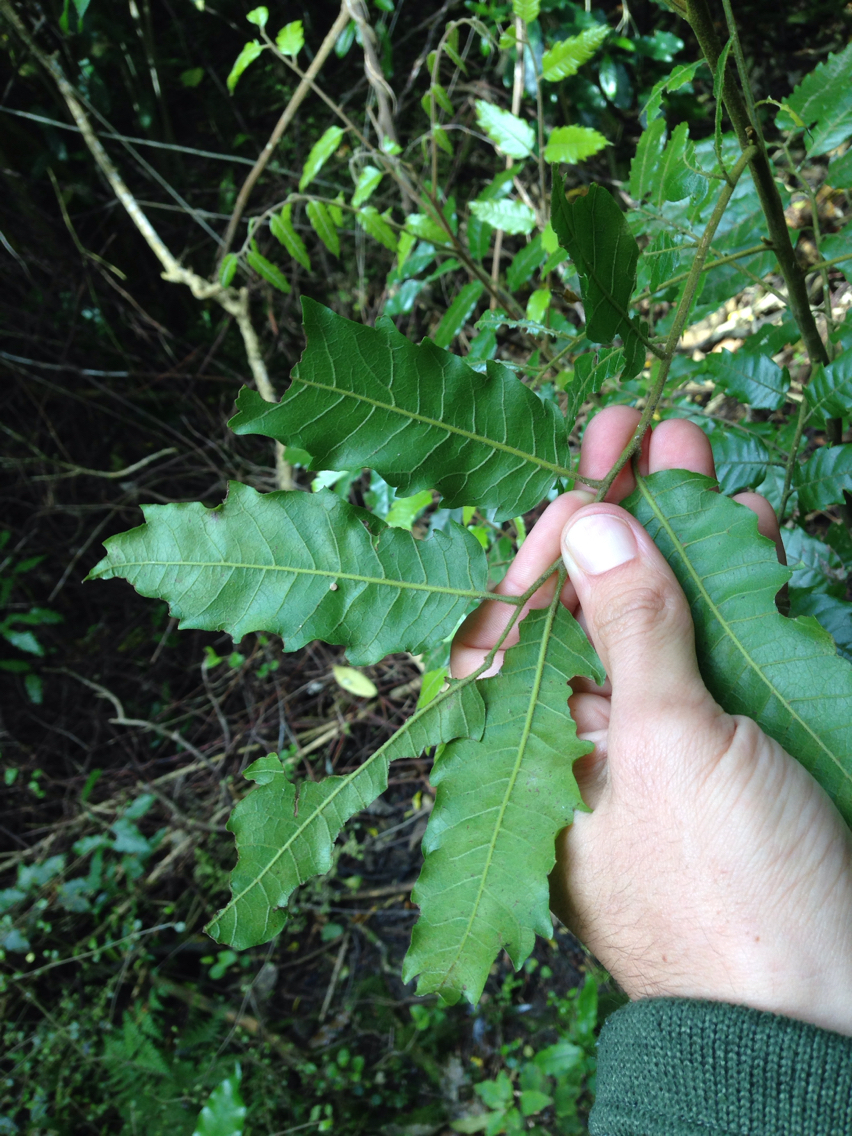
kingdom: Plantae
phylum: Tracheophyta
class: Magnoliopsida
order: Sapindales
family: Sapindaceae
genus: Alectryon
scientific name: Alectryon excelsus
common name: Three kings titoki
